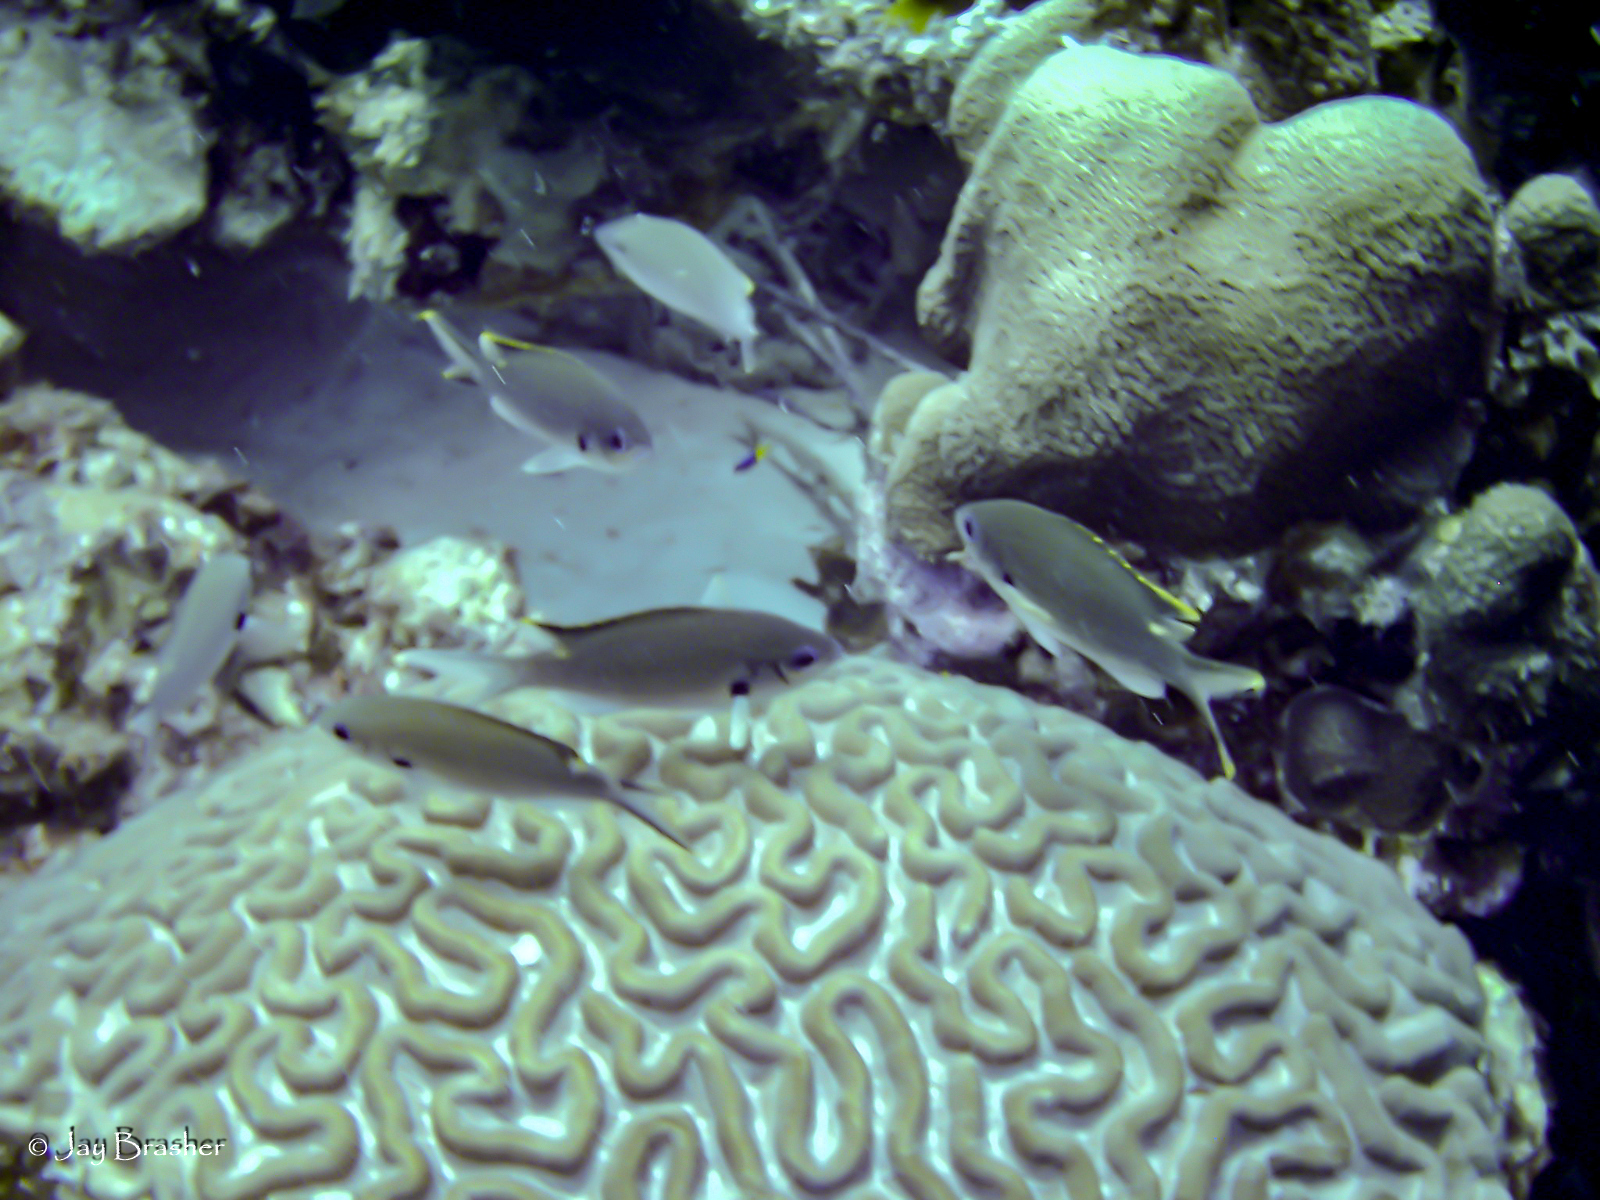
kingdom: Animalia
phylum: Cnidaria
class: Anthozoa
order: Scleractinia
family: Faviidae
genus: Colpophyllia
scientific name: Colpophyllia natans
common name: Boulder brain coral
